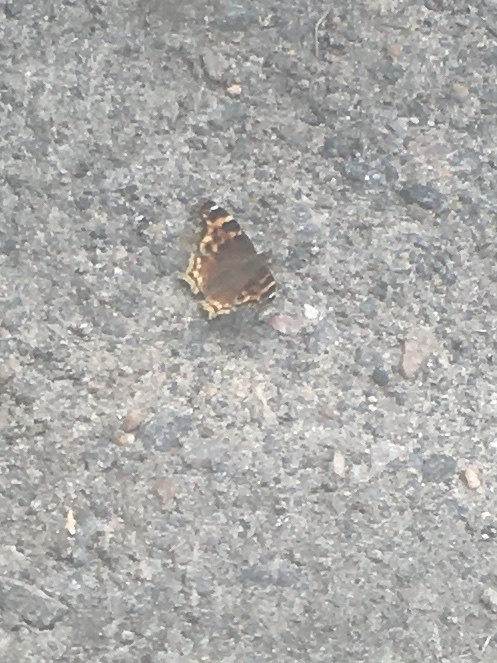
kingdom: Animalia
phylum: Arthropoda
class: Insecta
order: Lepidoptera
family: Nymphalidae
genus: Polygonia
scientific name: Polygonia vaualbum
